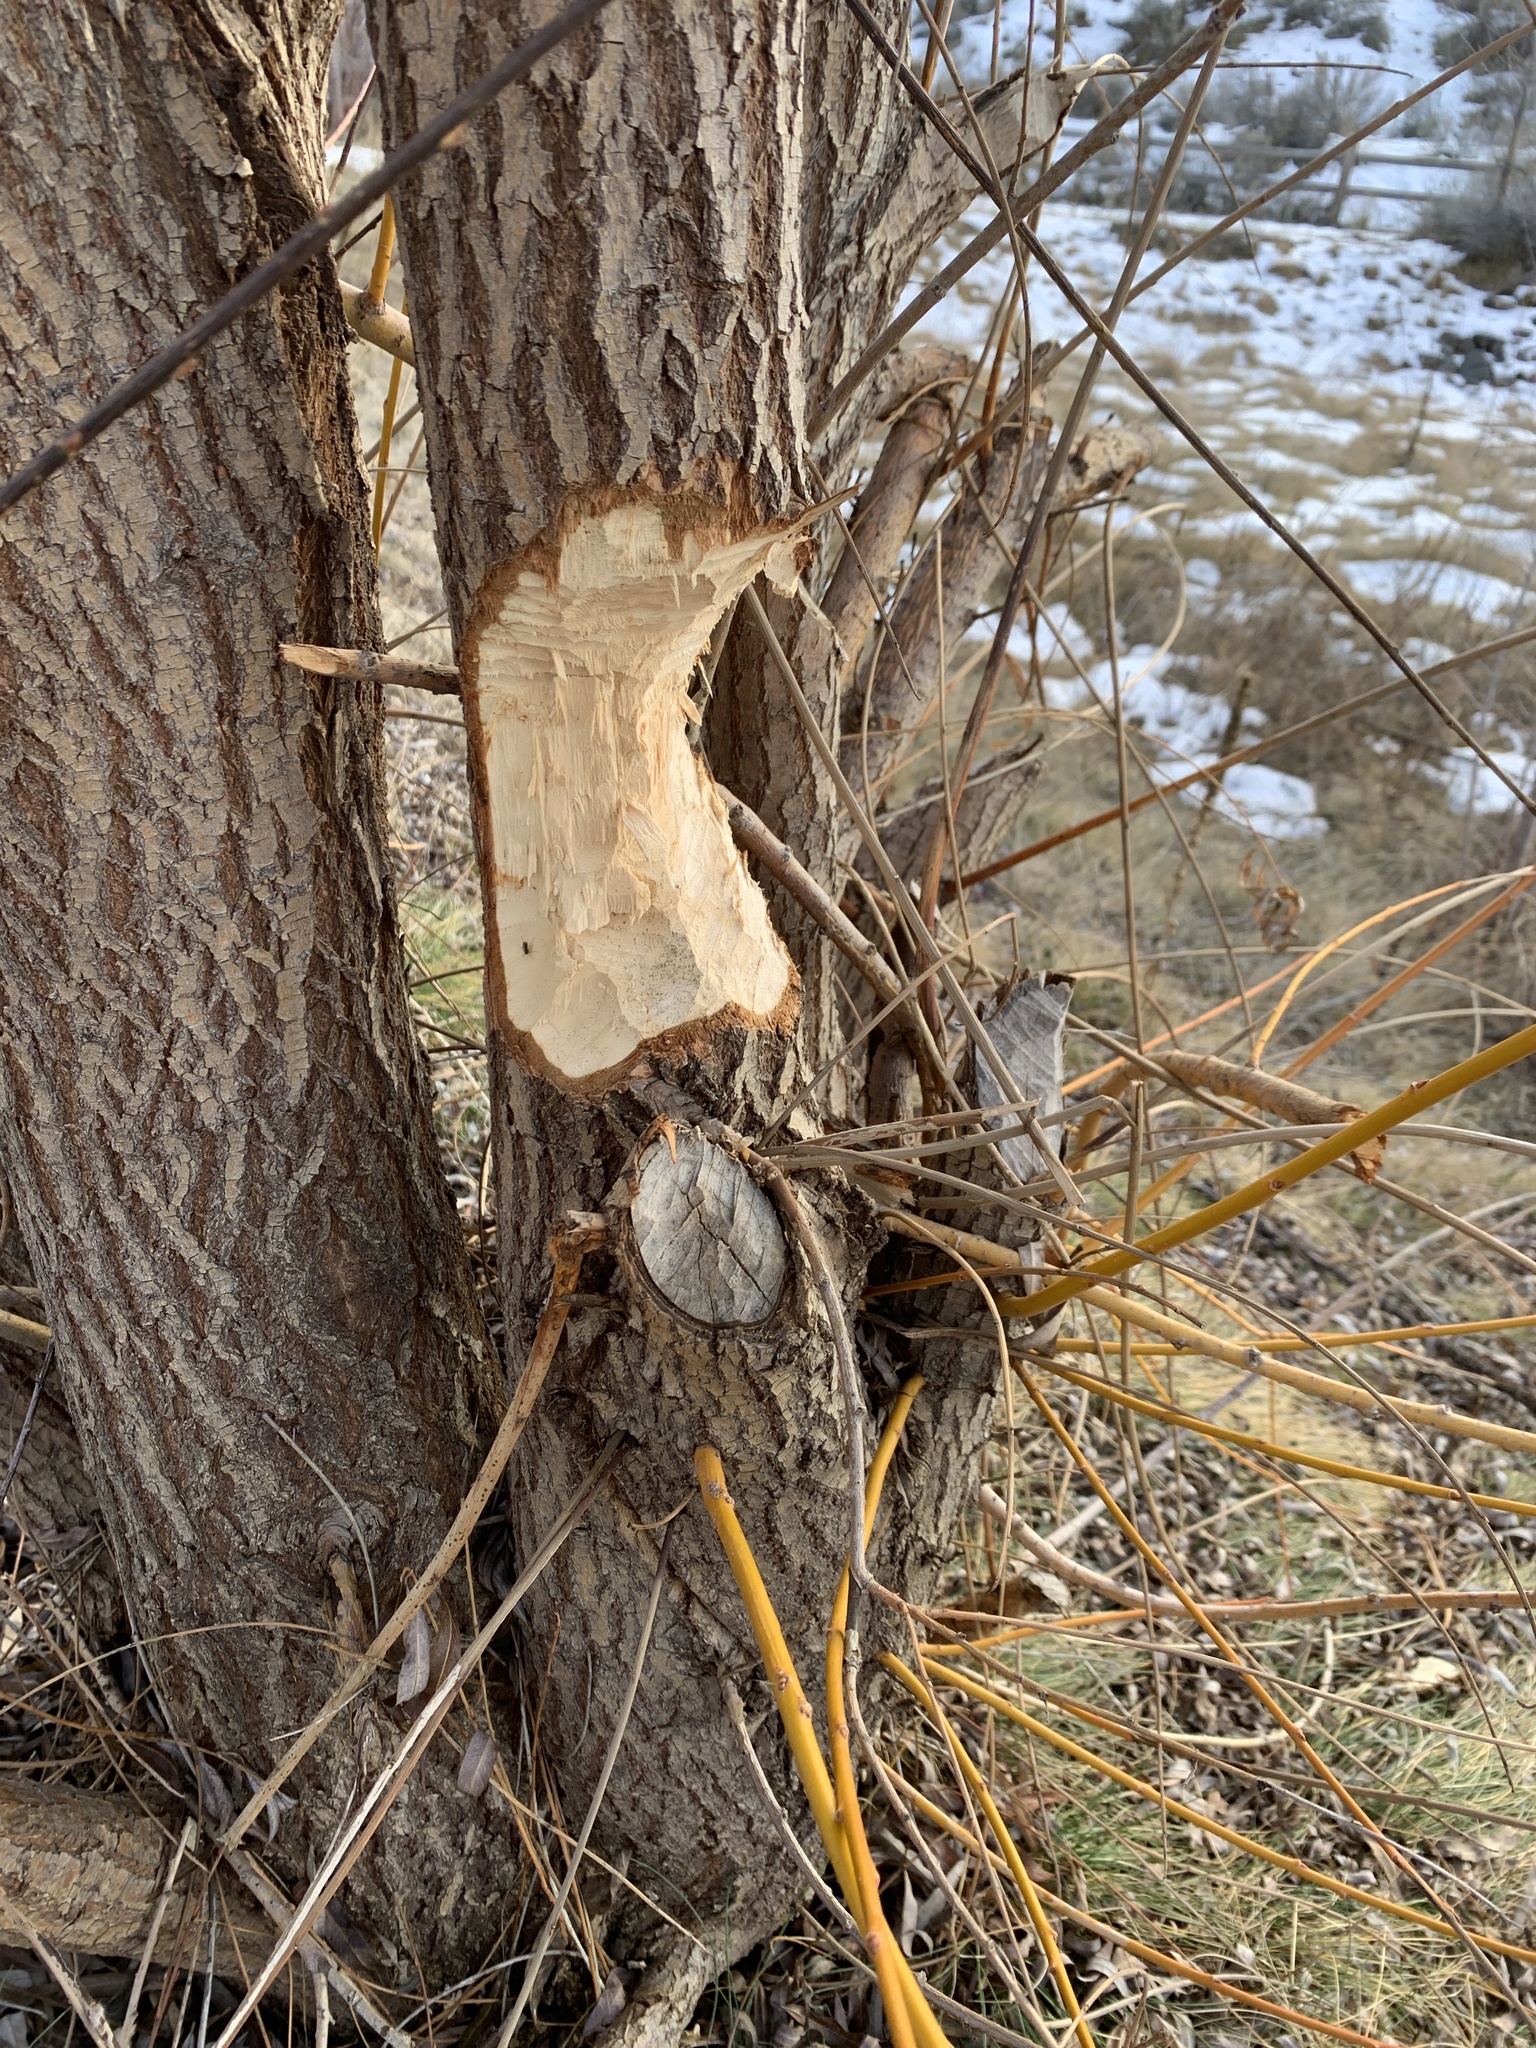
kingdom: Animalia
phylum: Chordata
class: Mammalia
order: Rodentia
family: Castoridae
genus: Castor
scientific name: Castor canadensis
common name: American beaver
